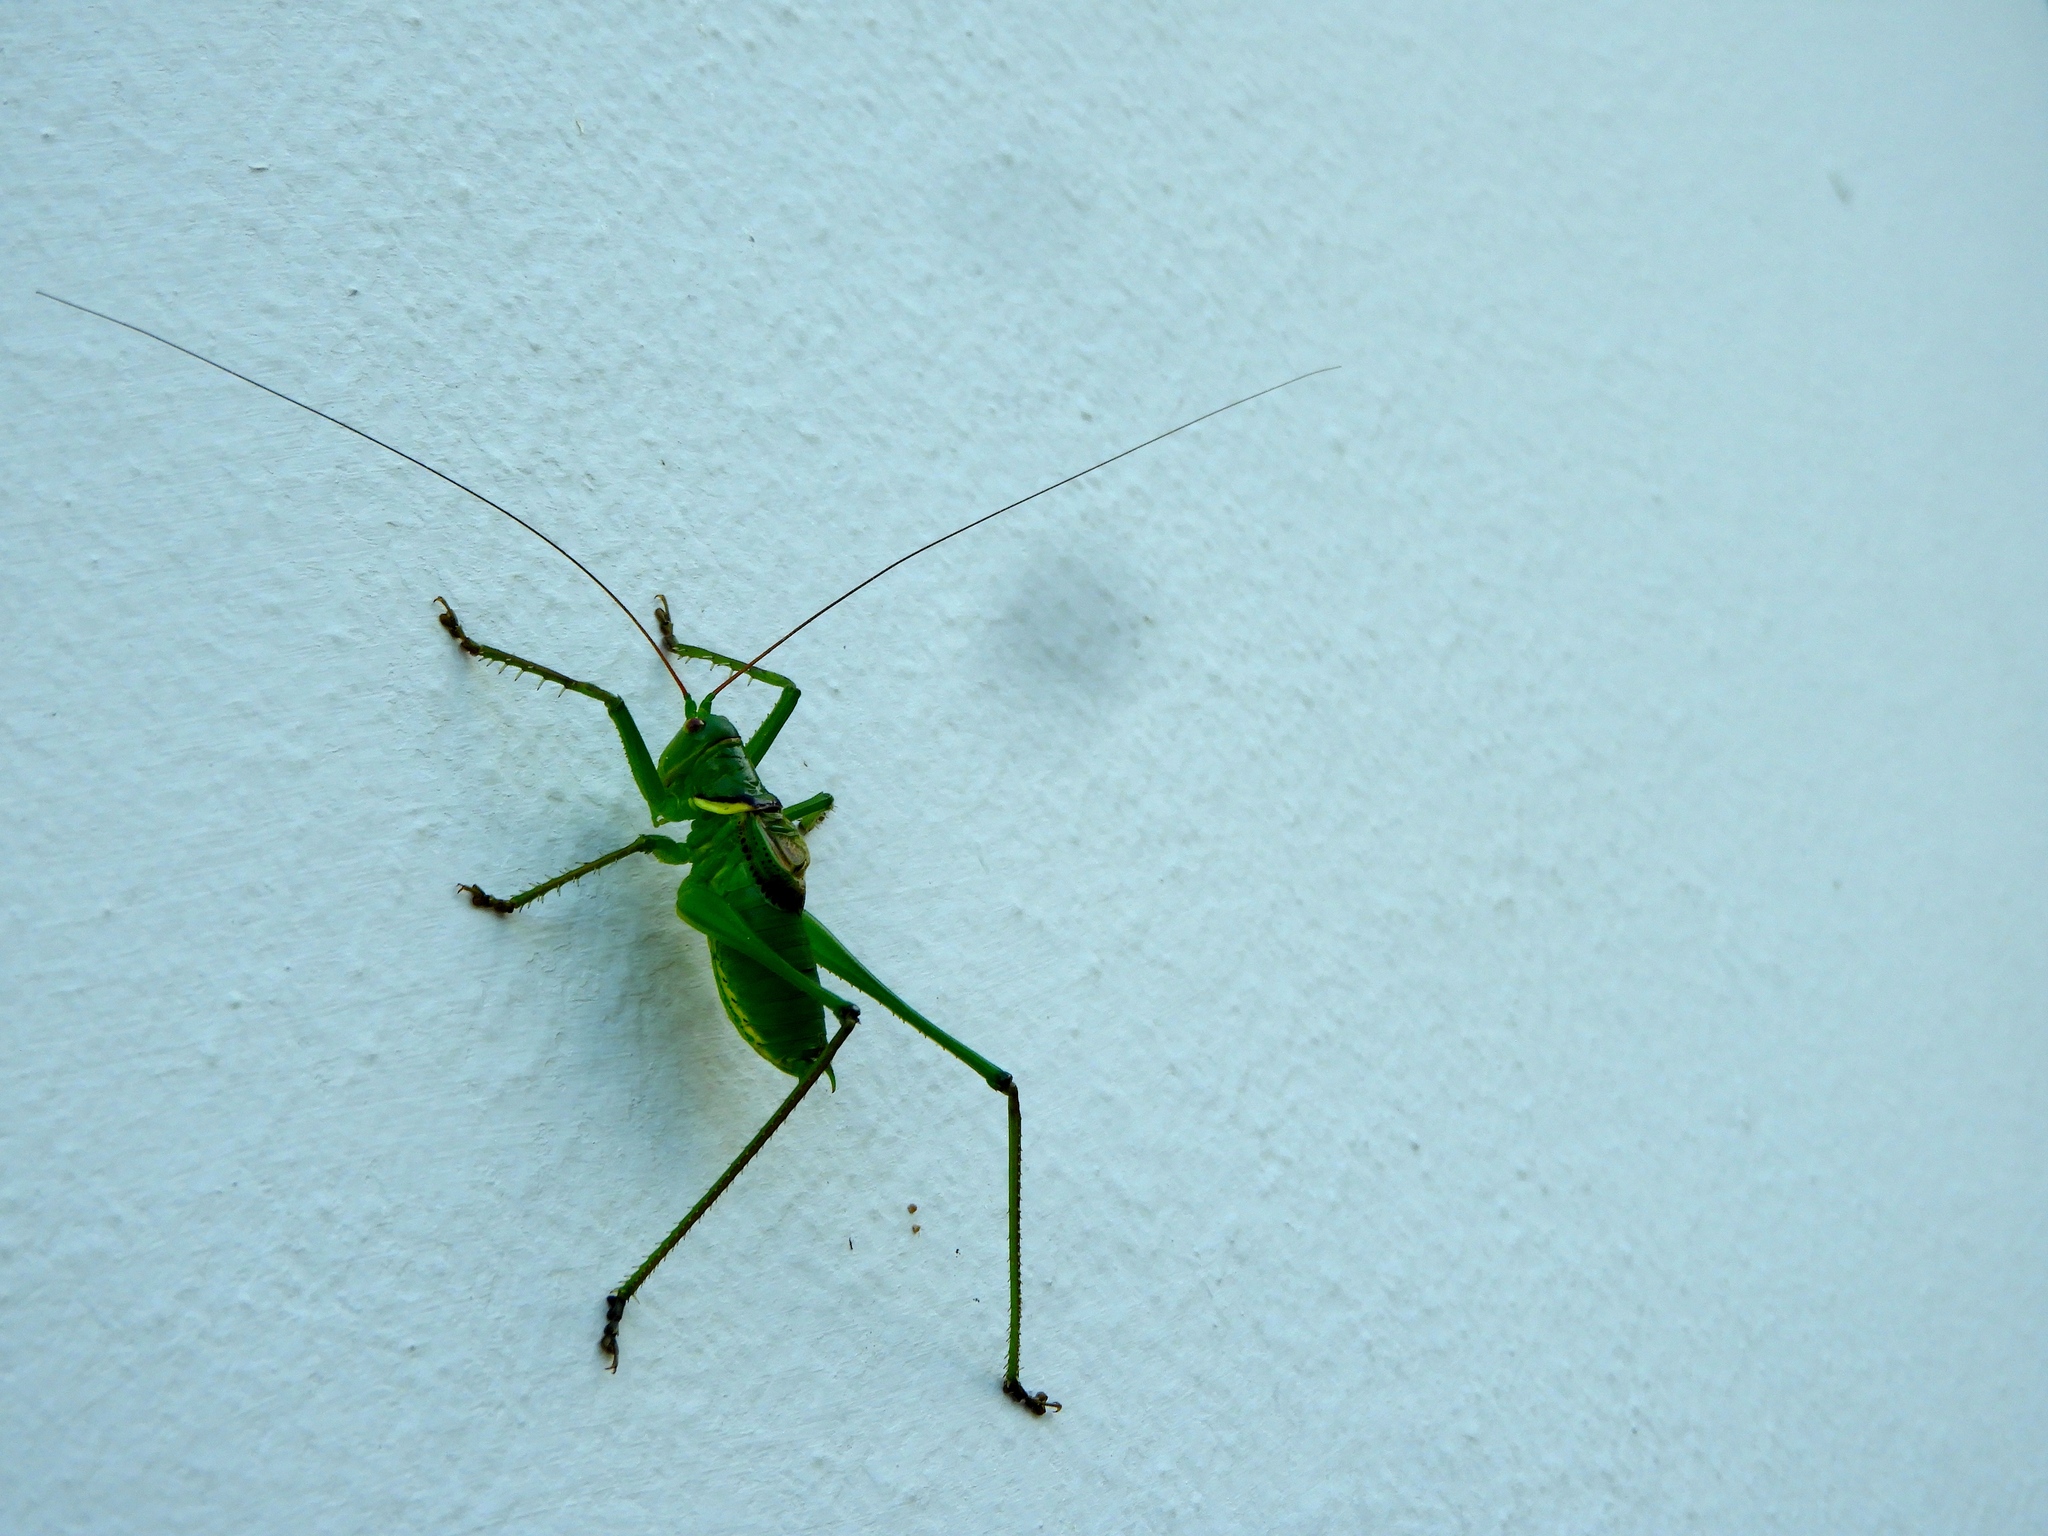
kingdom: Animalia
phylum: Arthropoda
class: Insecta
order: Orthoptera
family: Tettigoniidae
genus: Neobarrettia
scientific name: Neobarrettia sinaloae
